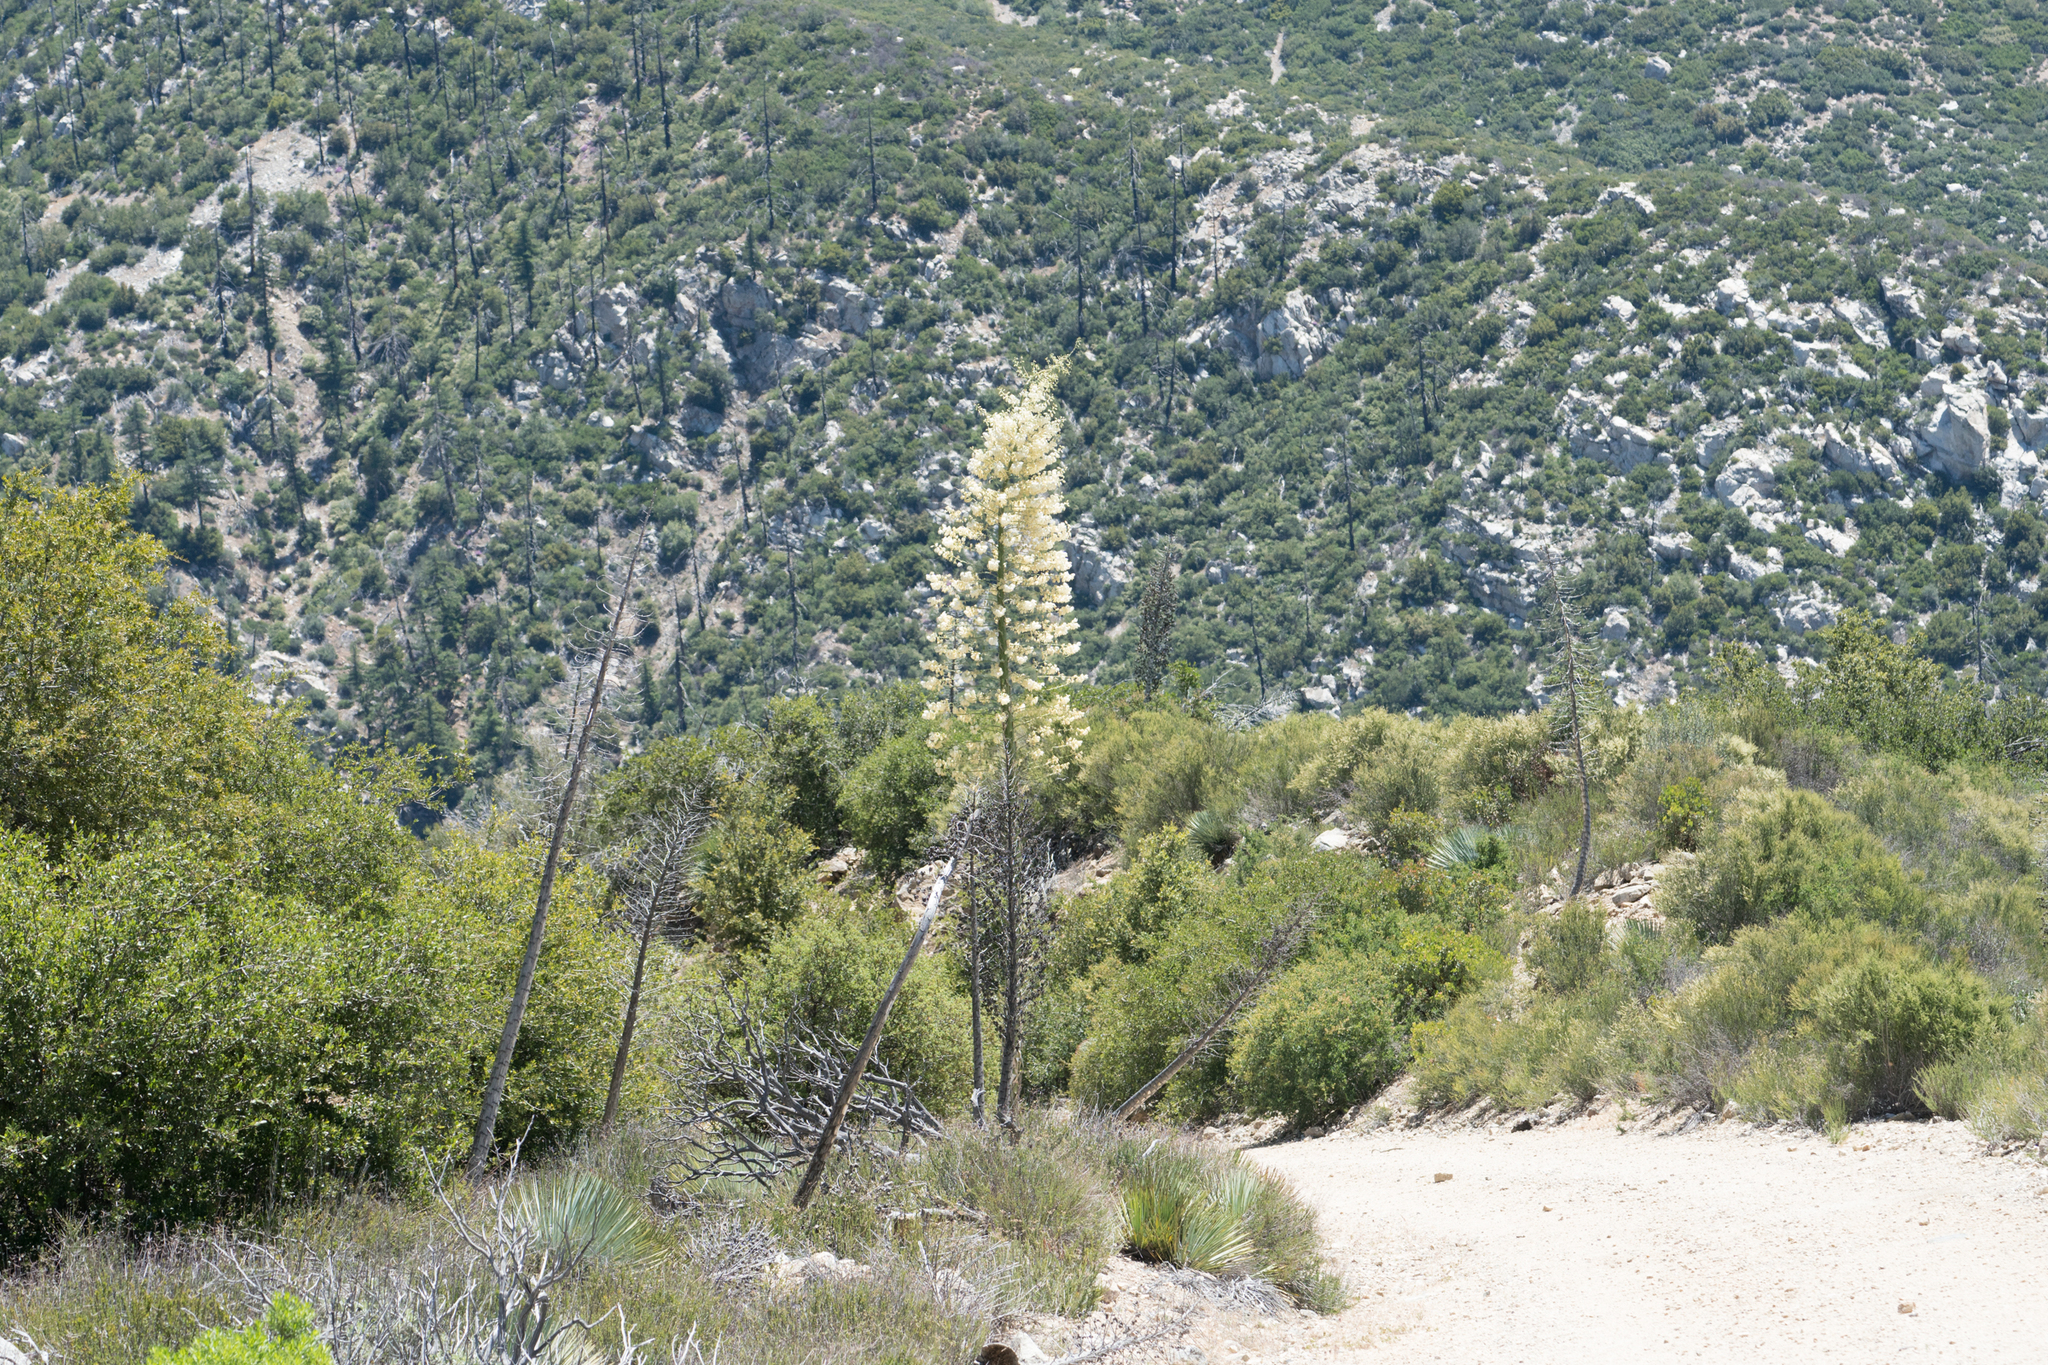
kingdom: Plantae
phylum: Tracheophyta
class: Liliopsida
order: Asparagales
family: Asparagaceae
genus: Hesperoyucca
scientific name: Hesperoyucca whipplei
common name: Our lord's-candle
